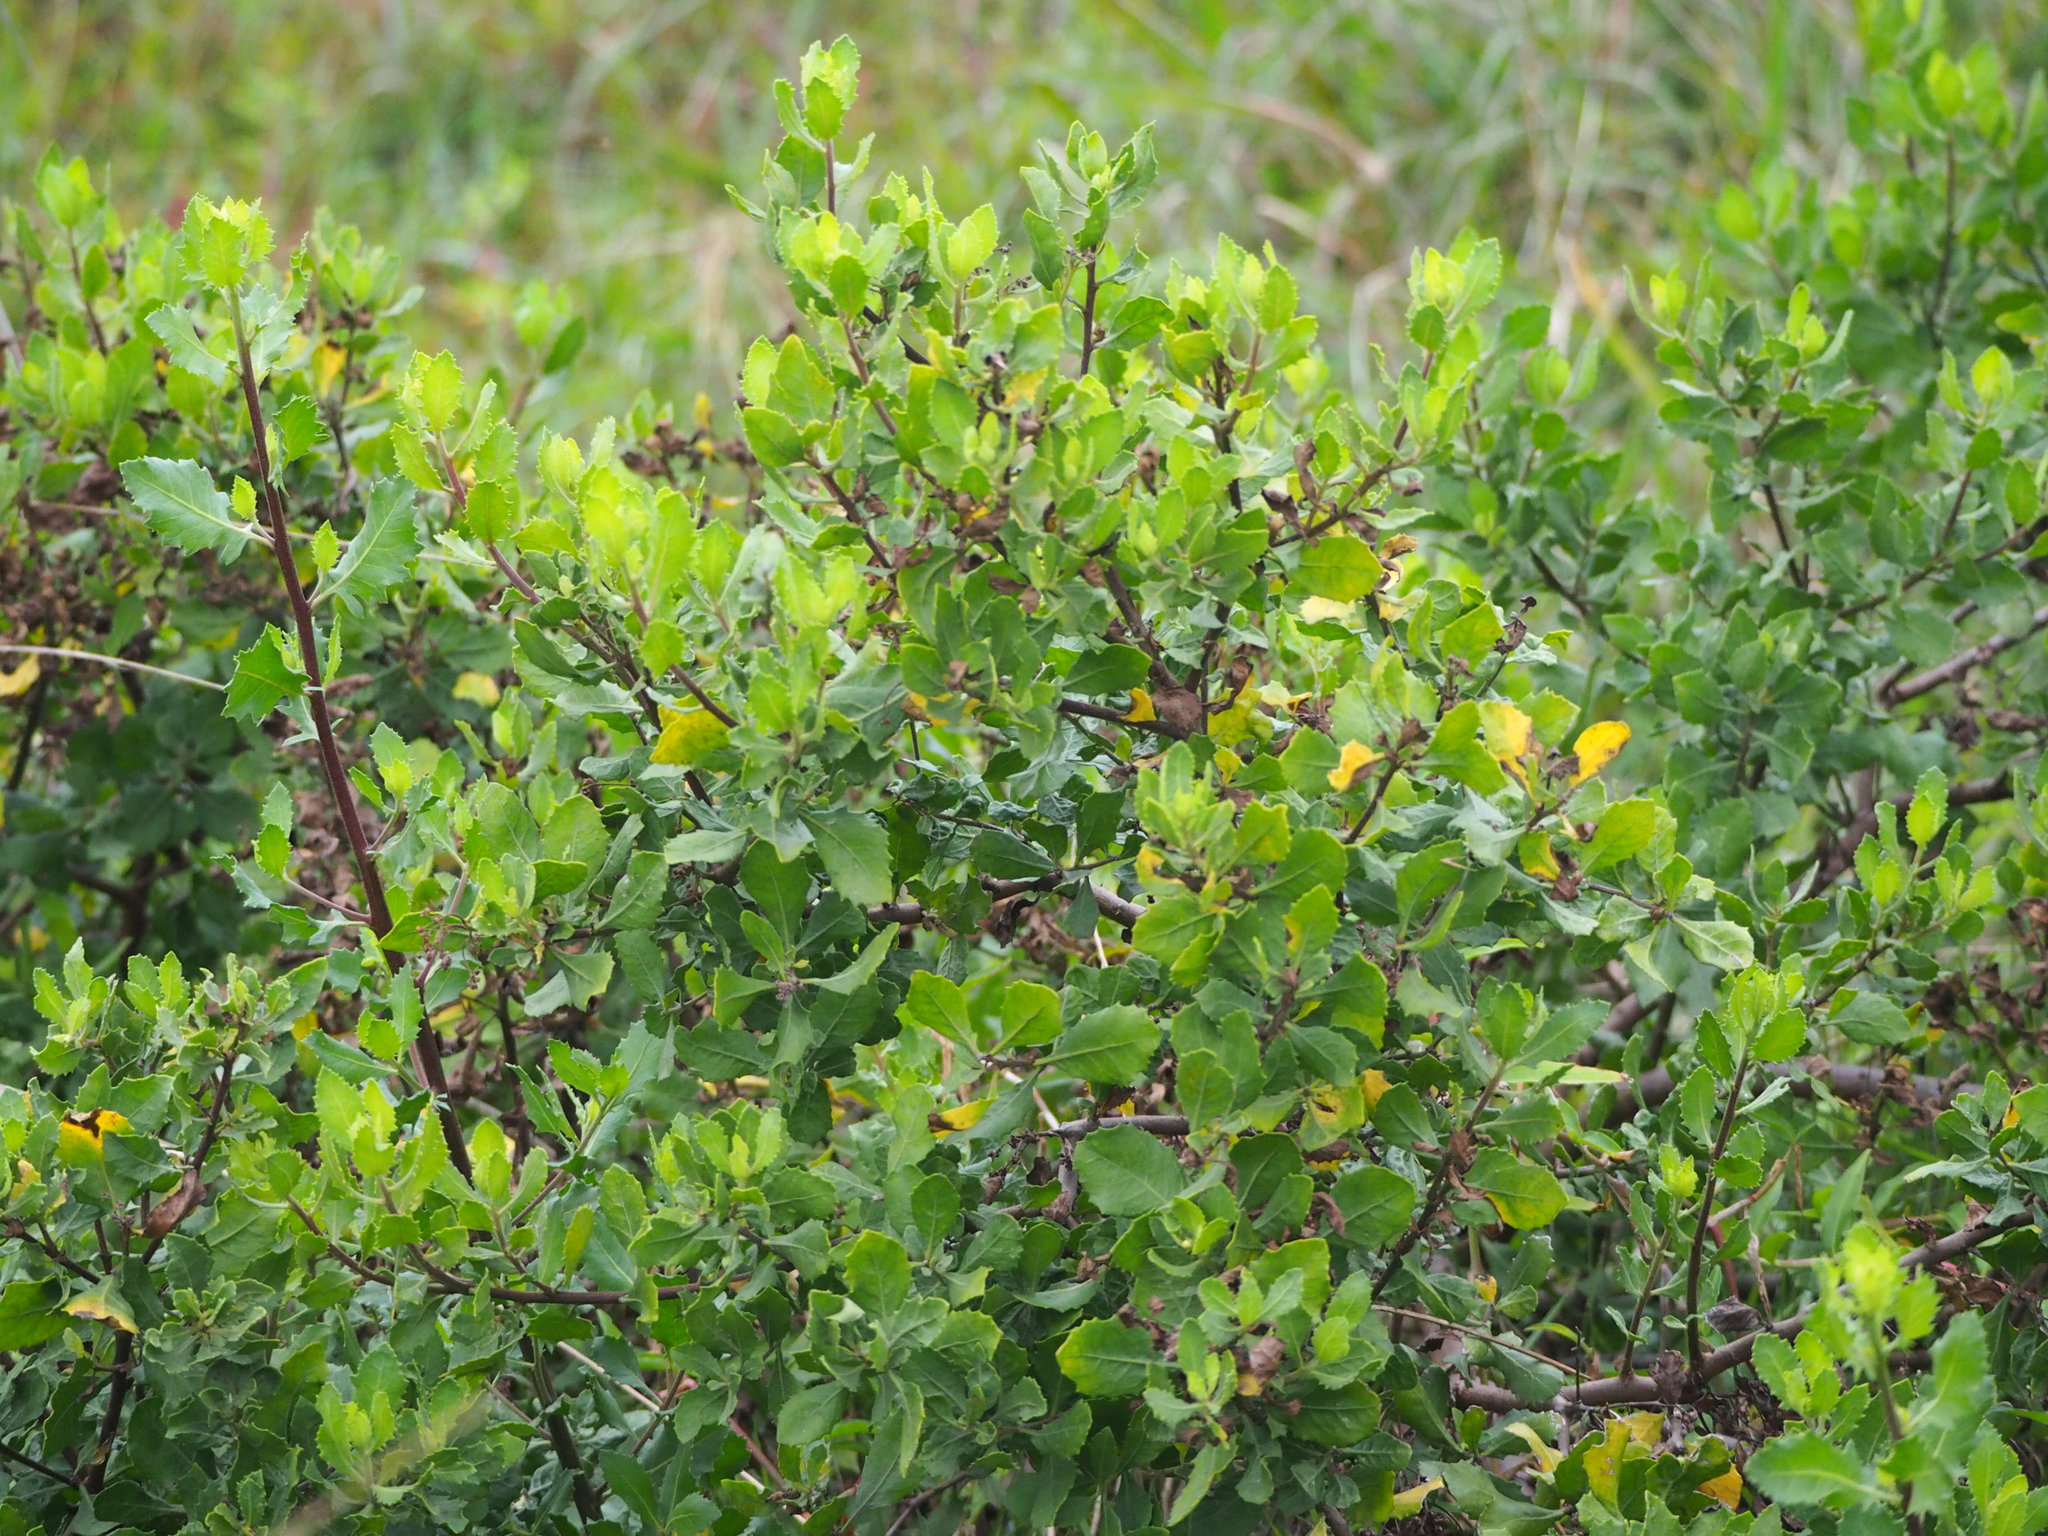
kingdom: Plantae
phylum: Tracheophyta
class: Magnoliopsida
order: Asterales
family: Asteraceae
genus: Pluchea
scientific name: Pluchea indica
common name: Indian fleabane
